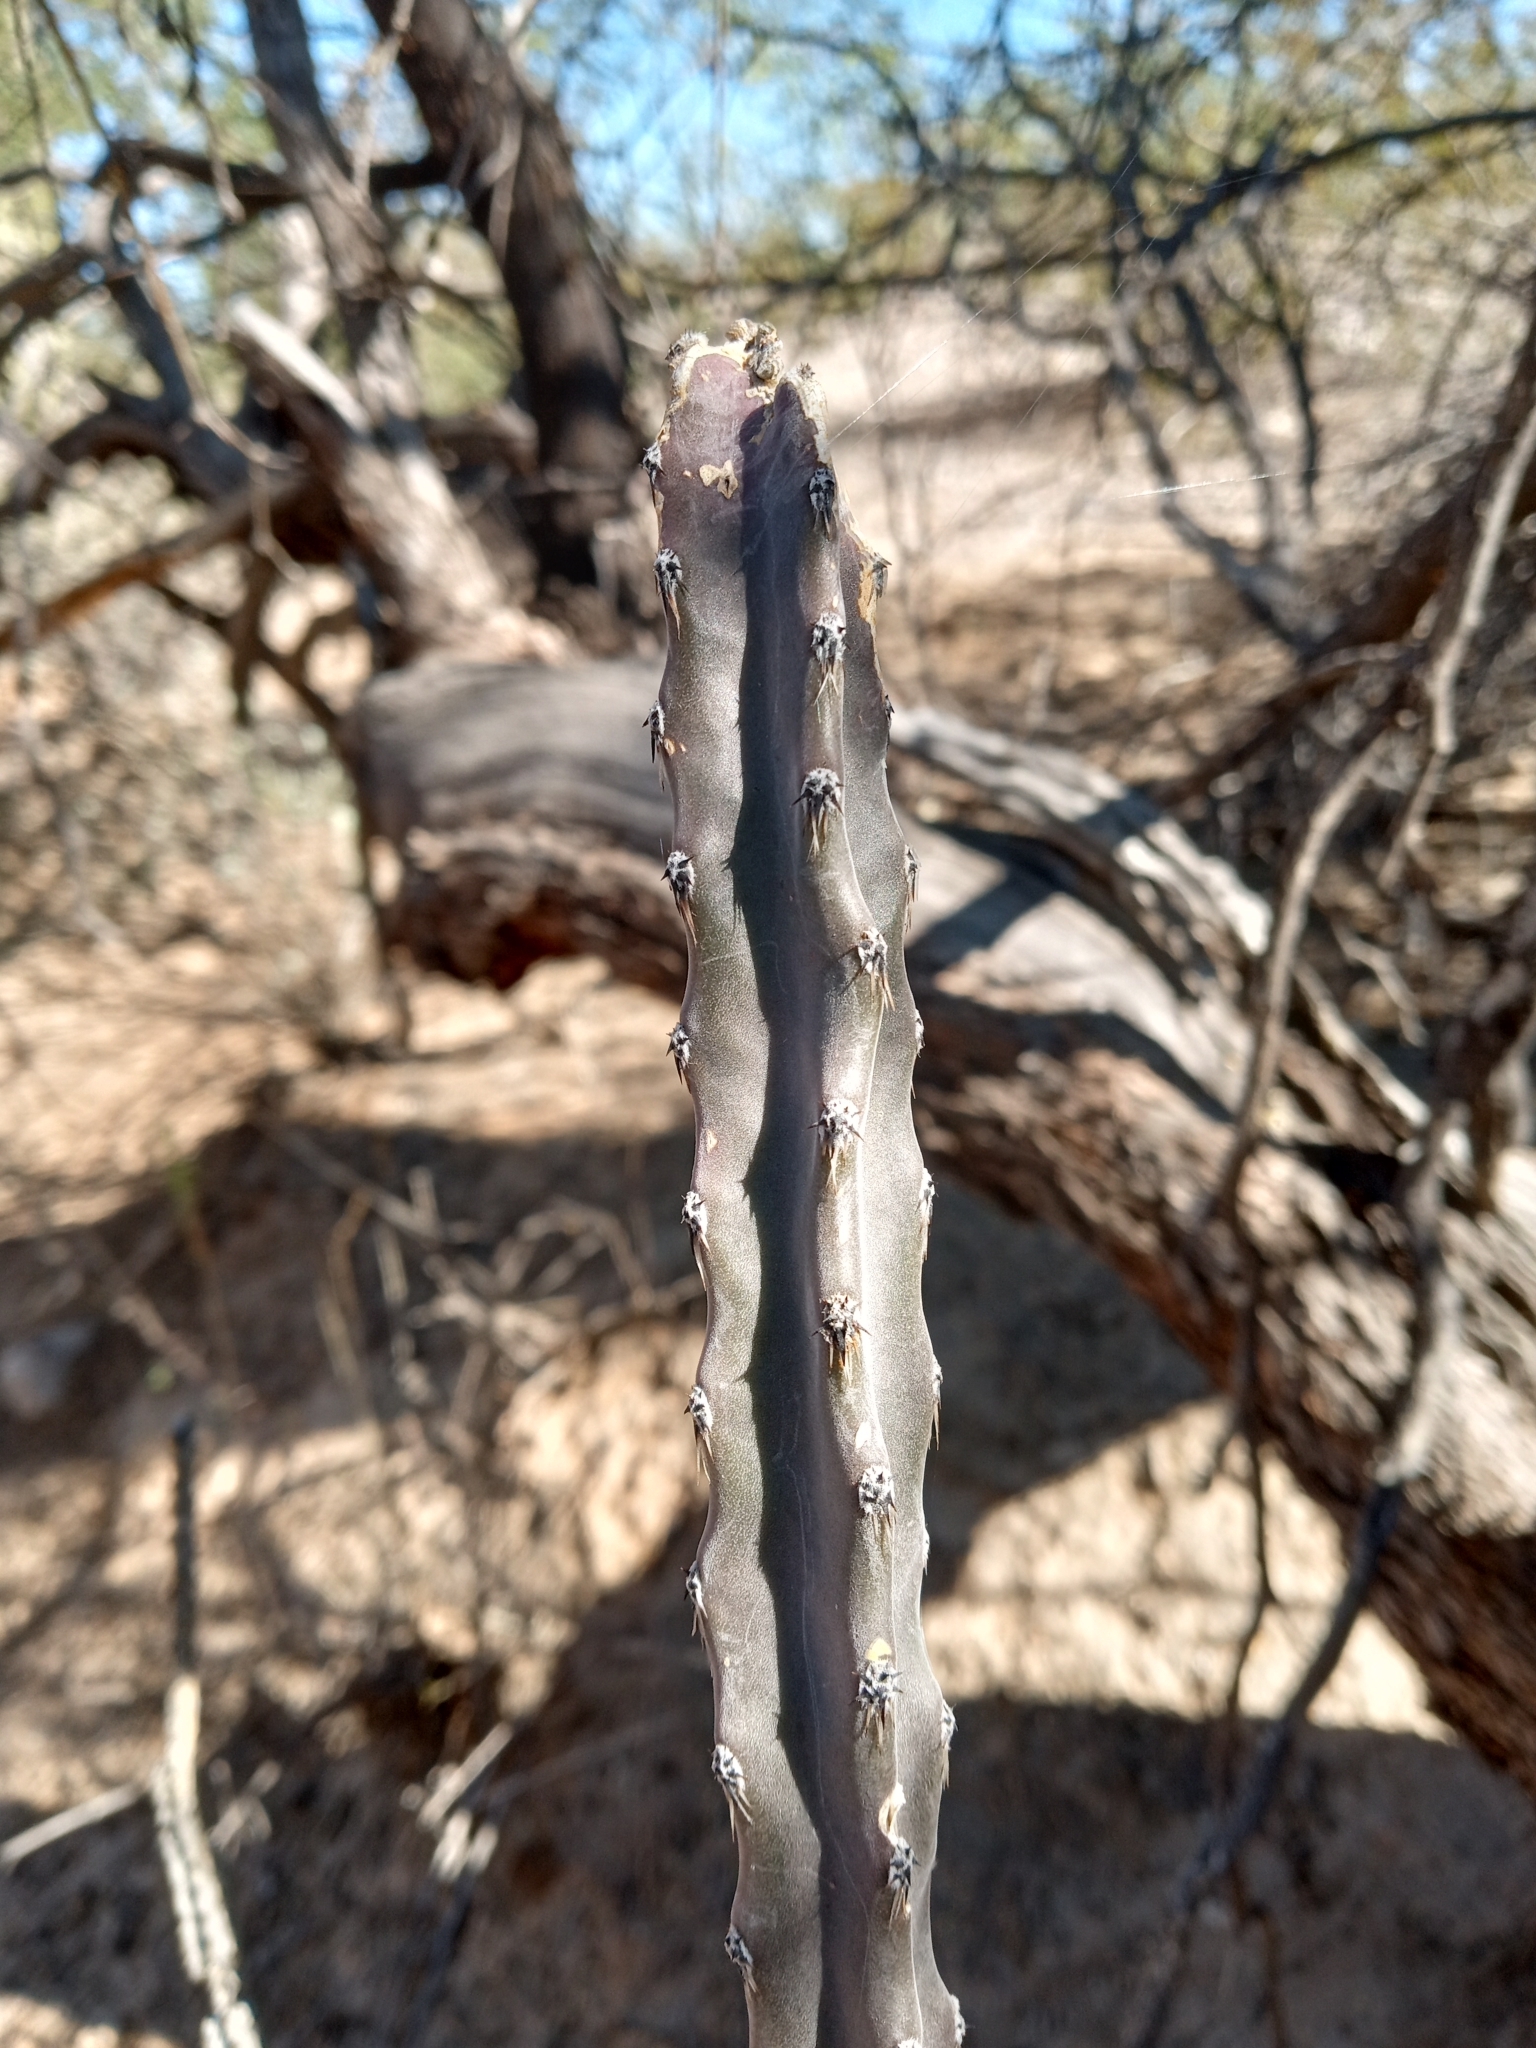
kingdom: Plantae
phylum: Tracheophyta
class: Magnoliopsida
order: Caryophyllales
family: Cactaceae
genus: Peniocereus
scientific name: Peniocereus greggii
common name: Desert night-blooming cereus
